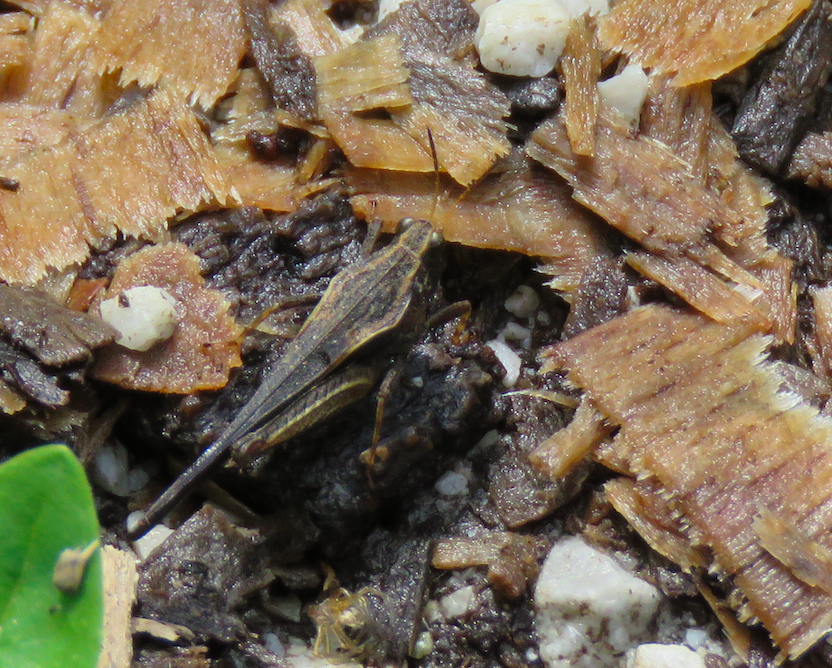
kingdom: Animalia
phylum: Arthropoda
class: Insecta
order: Orthoptera
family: Tetrigidae
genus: Tetrix
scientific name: Tetrix subulata
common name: Slender ground-hopper
